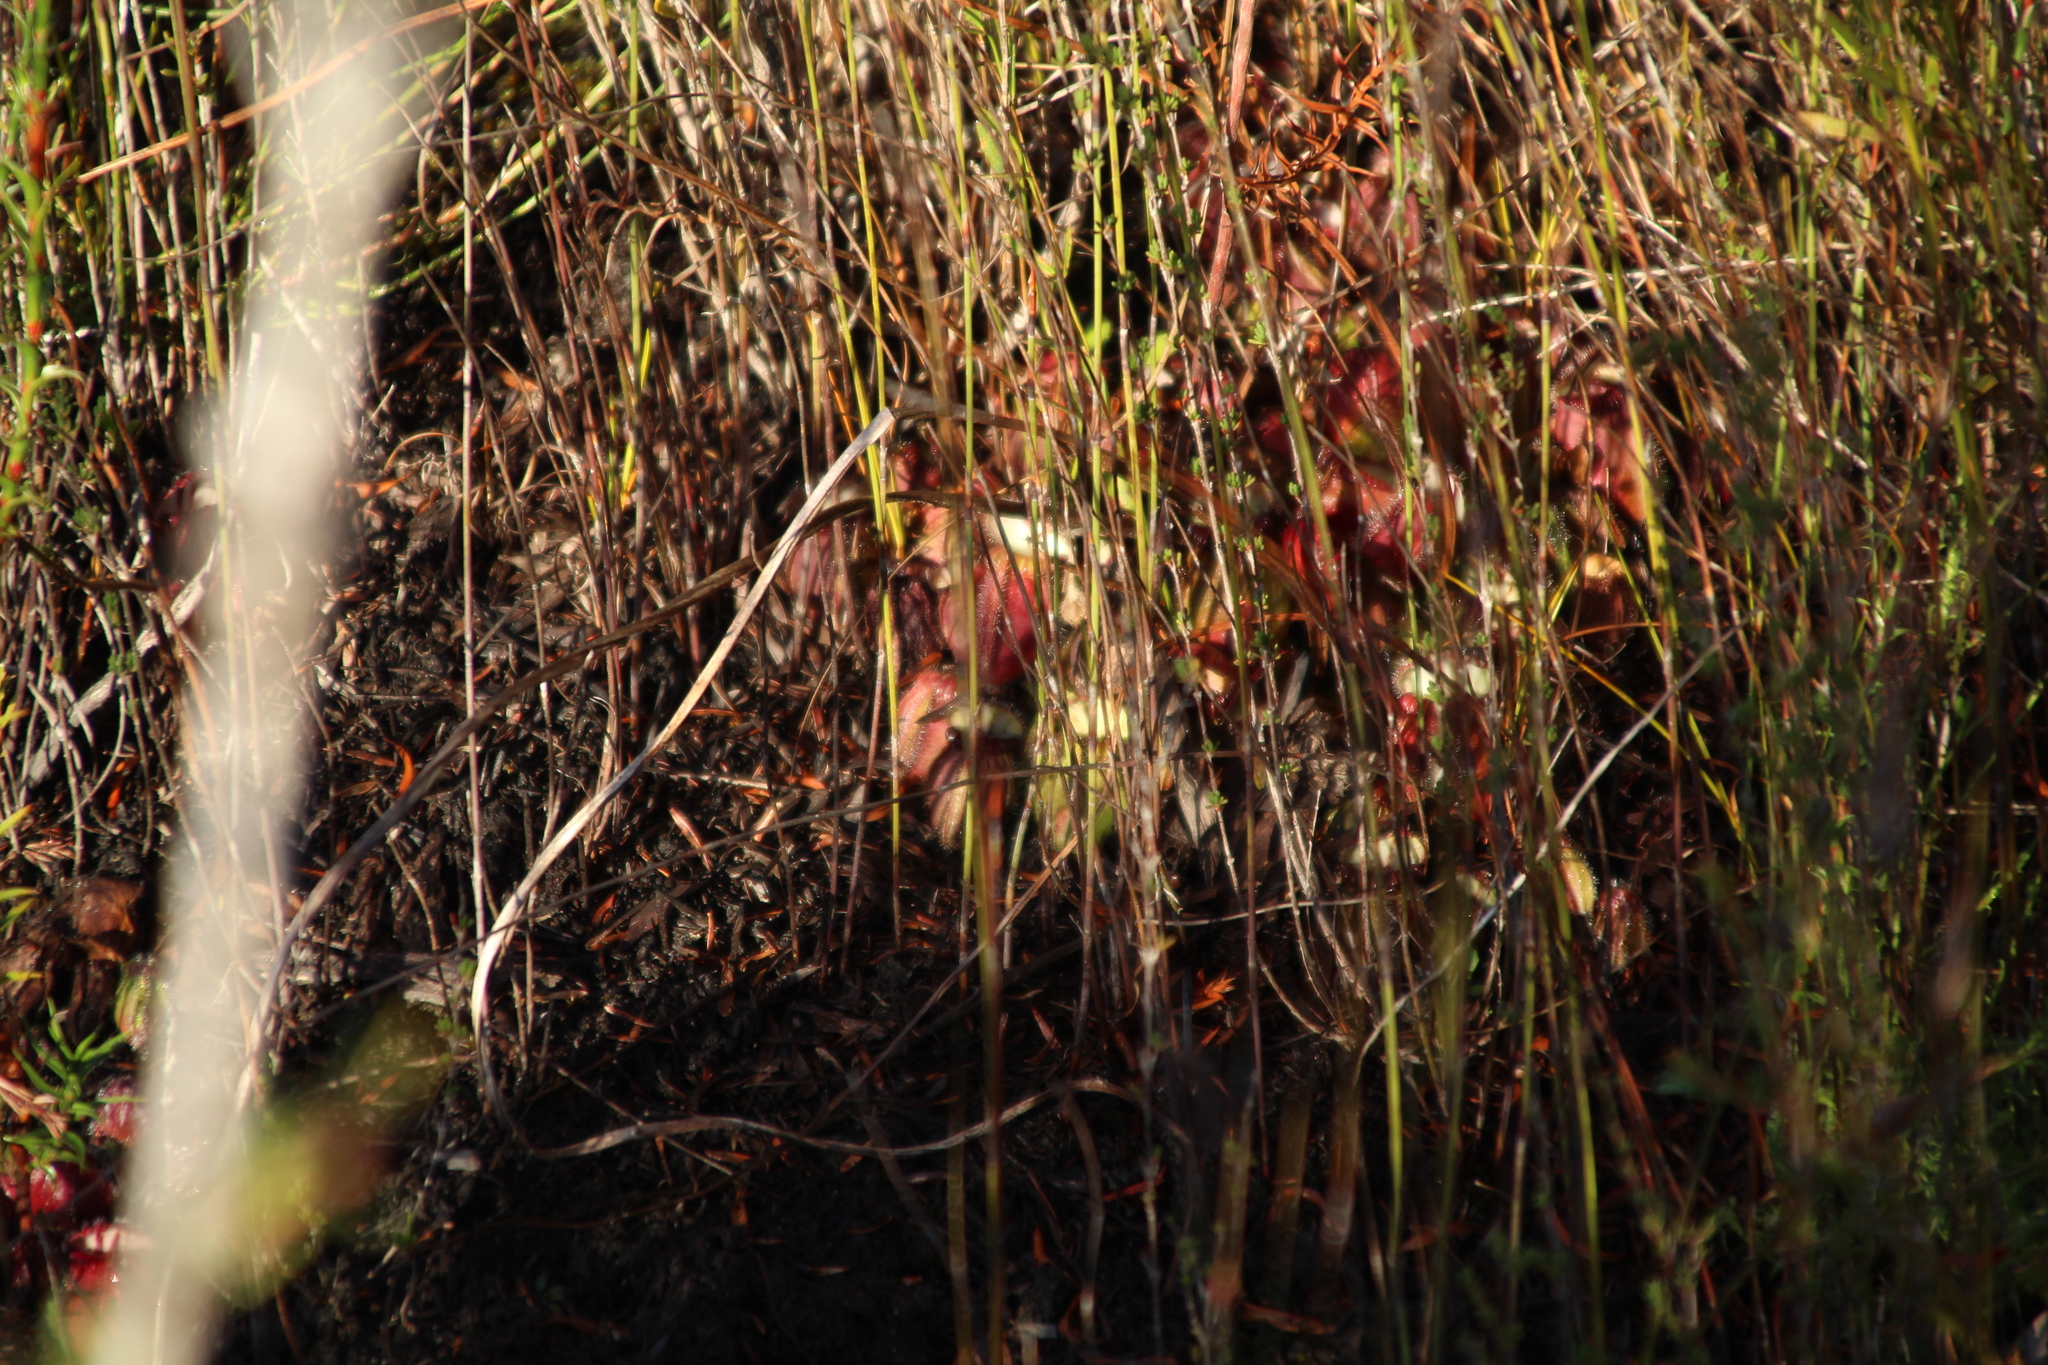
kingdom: Plantae
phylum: Tracheophyta
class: Magnoliopsida
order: Oxalidales
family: Cephalotaceae
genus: Cephalotus
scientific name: Cephalotus follicularis
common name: Australian pitcher plant
